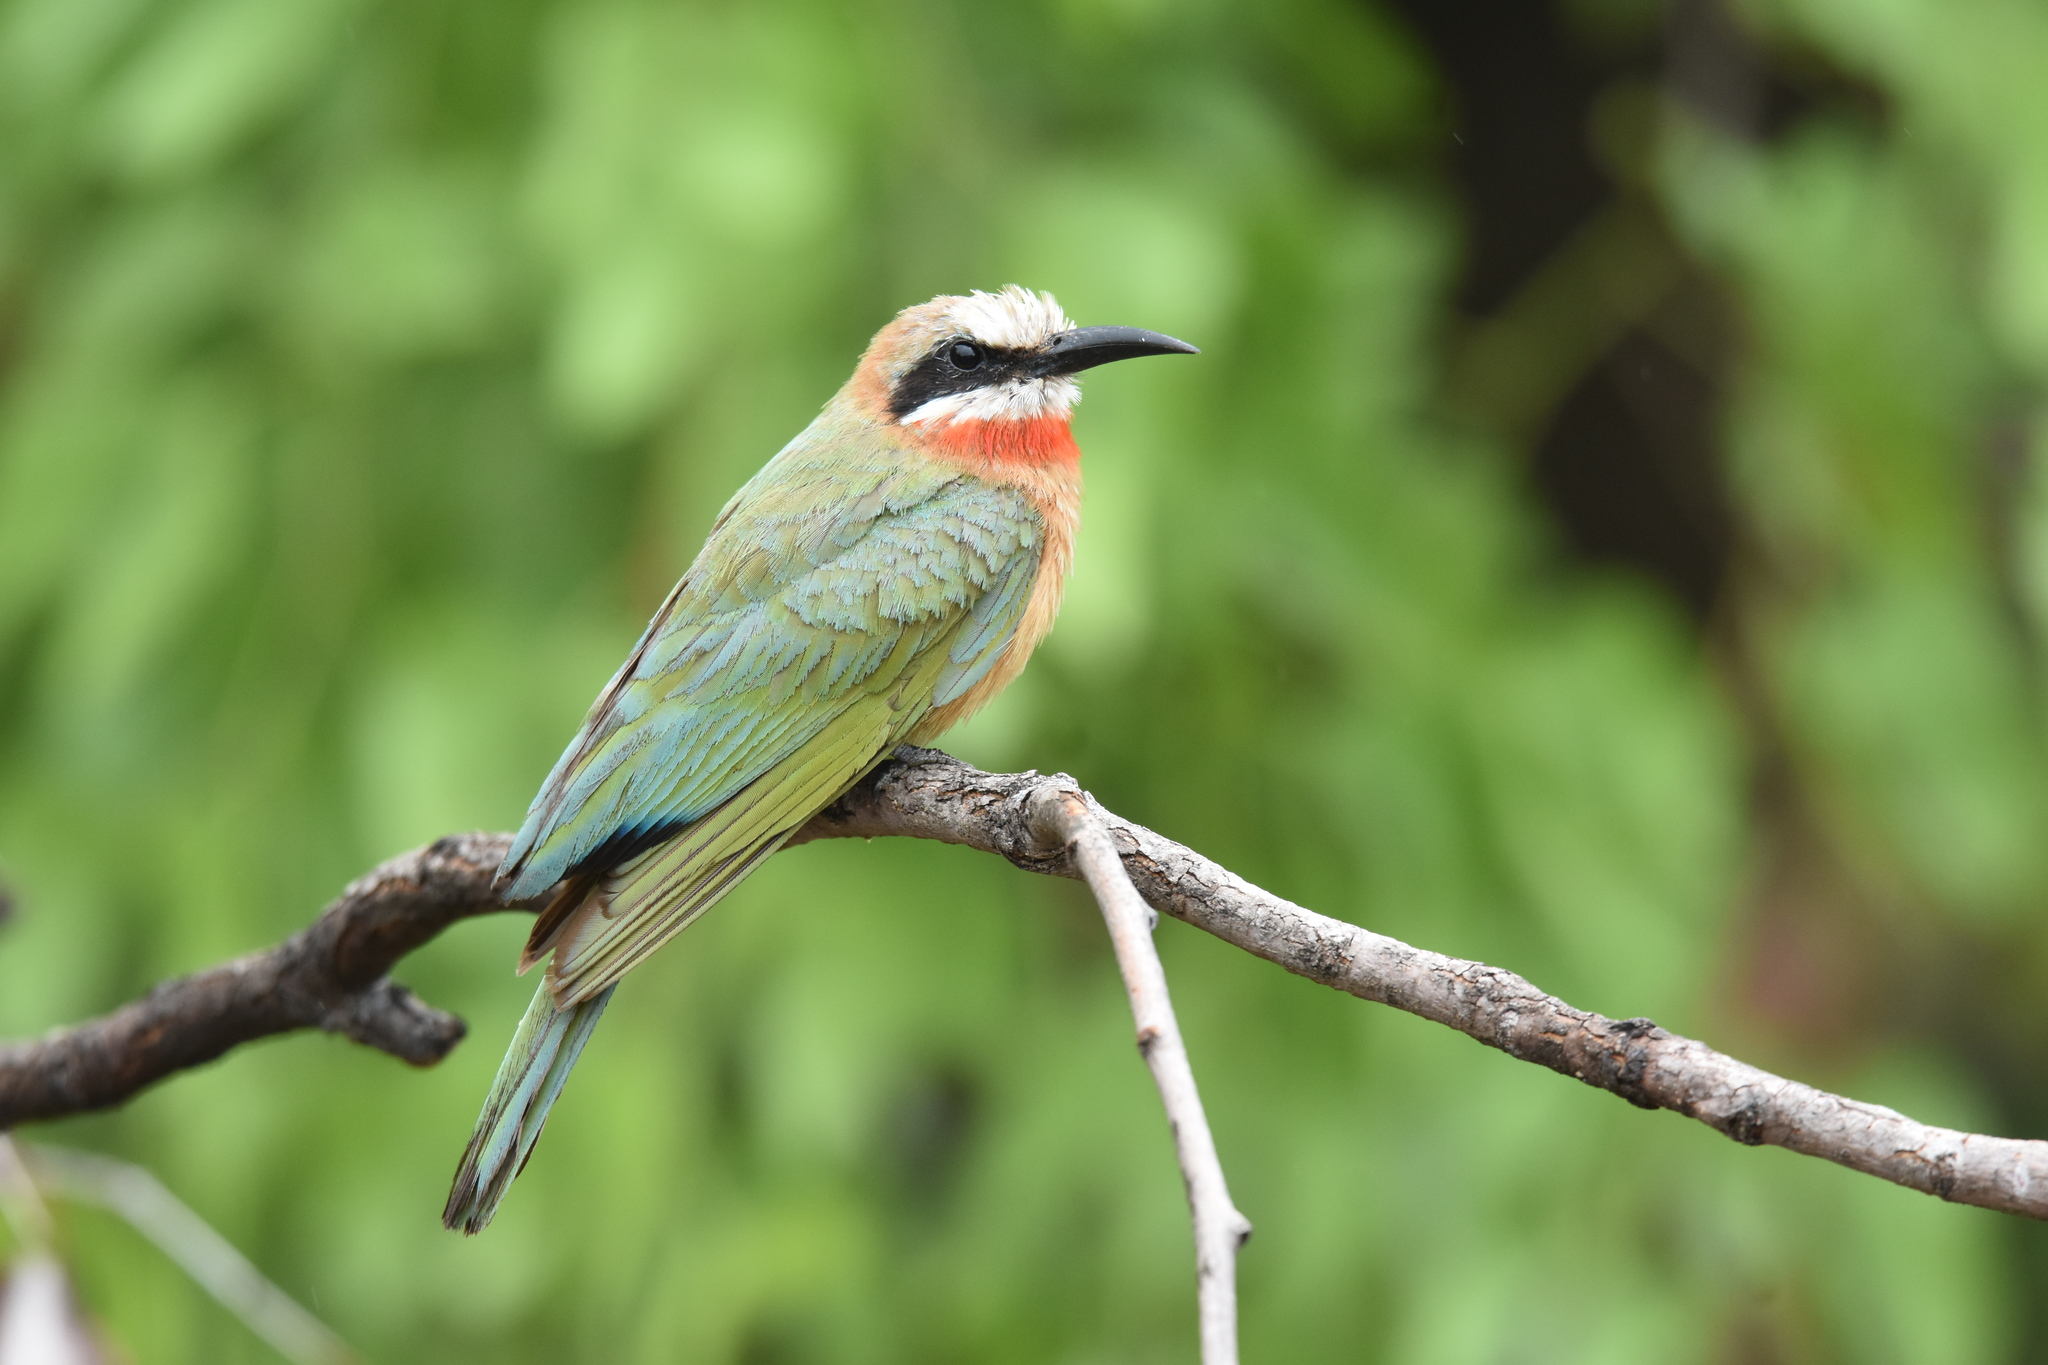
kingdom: Animalia
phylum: Chordata
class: Aves
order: Coraciiformes
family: Meropidae
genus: Merops
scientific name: Merops bullockoides
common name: White-fronted bee-eater
